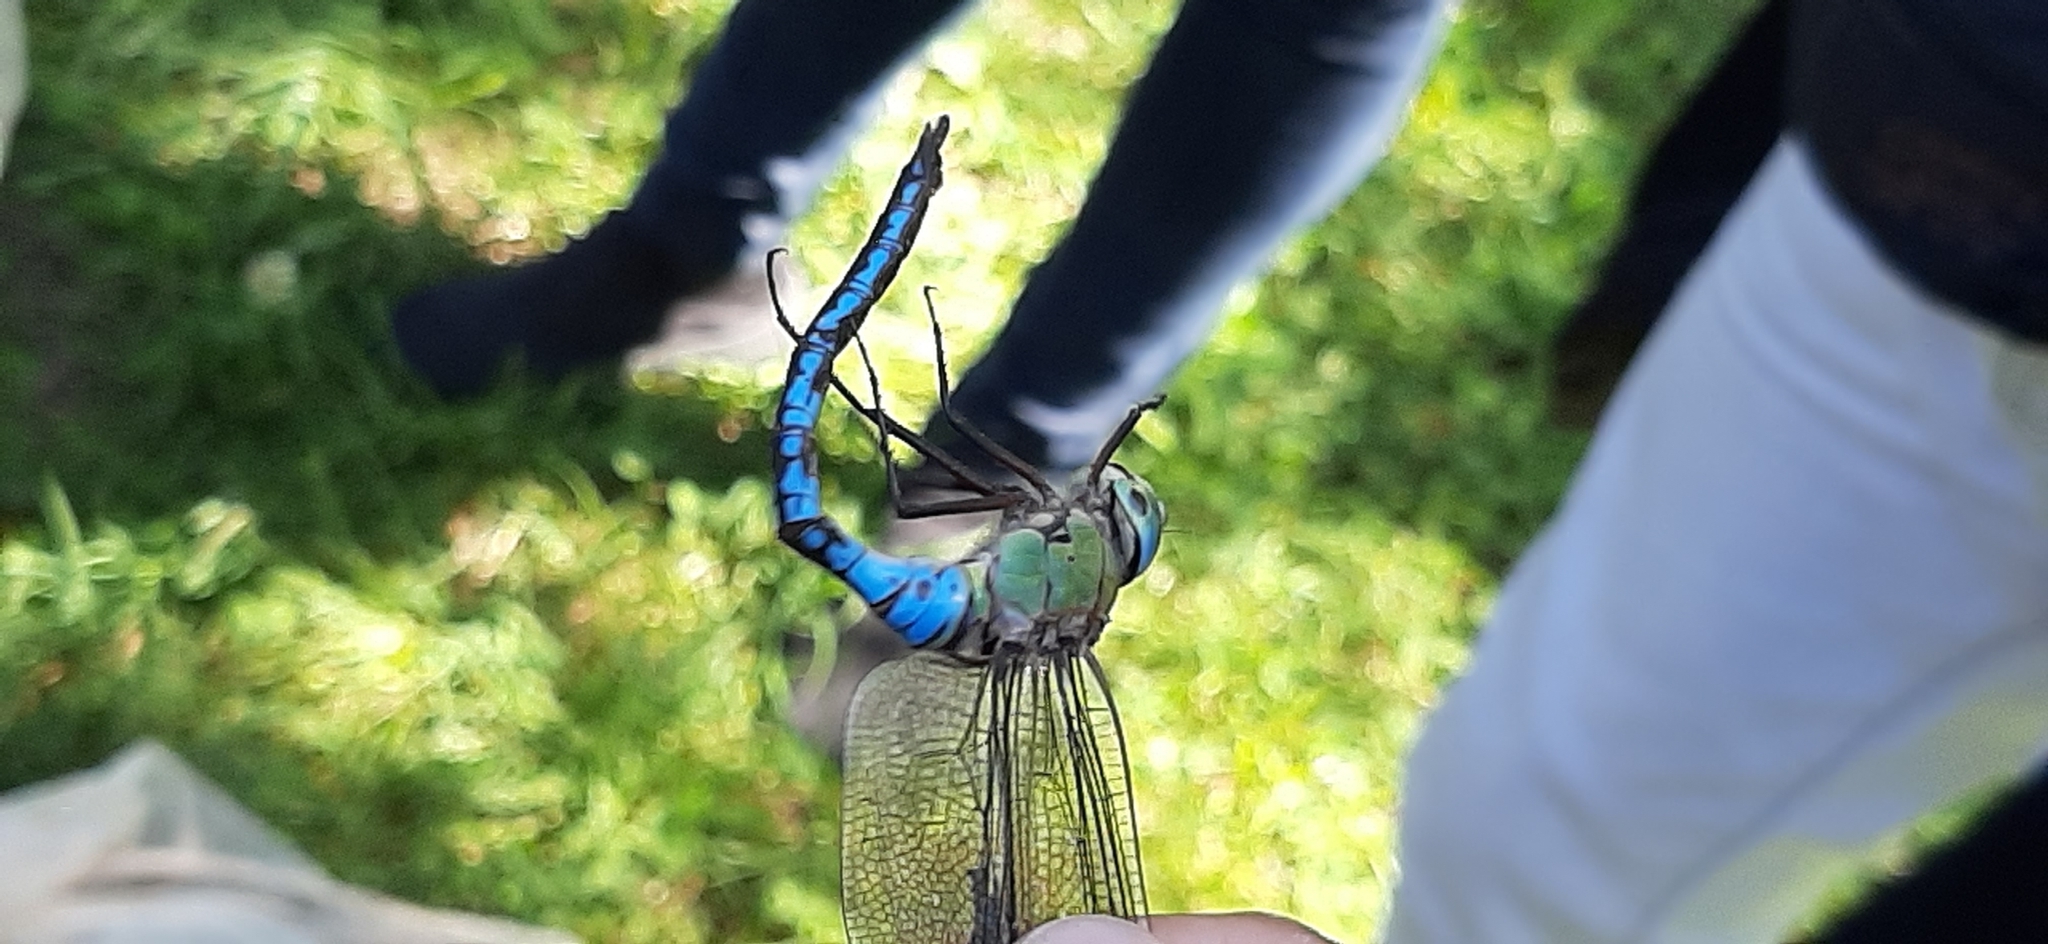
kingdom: Animalia
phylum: Arthropoda
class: Insecta
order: Odonata
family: Aeshnidae
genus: Anax
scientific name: Anax imperator
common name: Emperor dragonfly
